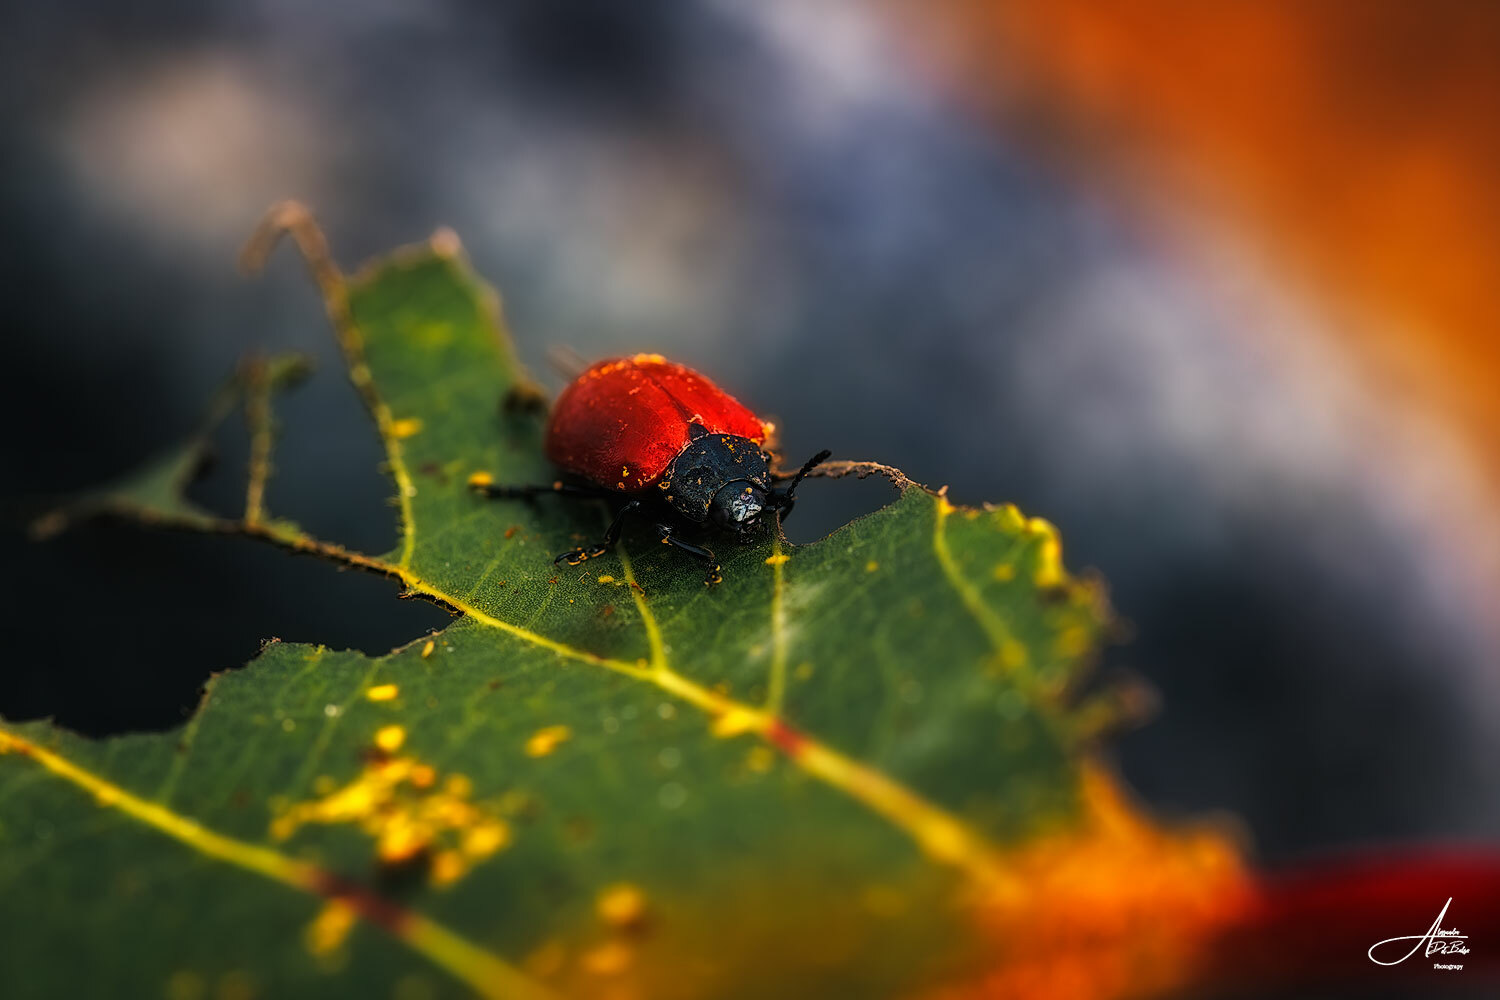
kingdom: Animalia
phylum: Arthropoda
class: Insecta
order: Coleoptera
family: Chrysomelidae
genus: Chrysomela
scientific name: Chrysomela populi
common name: Red poplar leaf beetle
